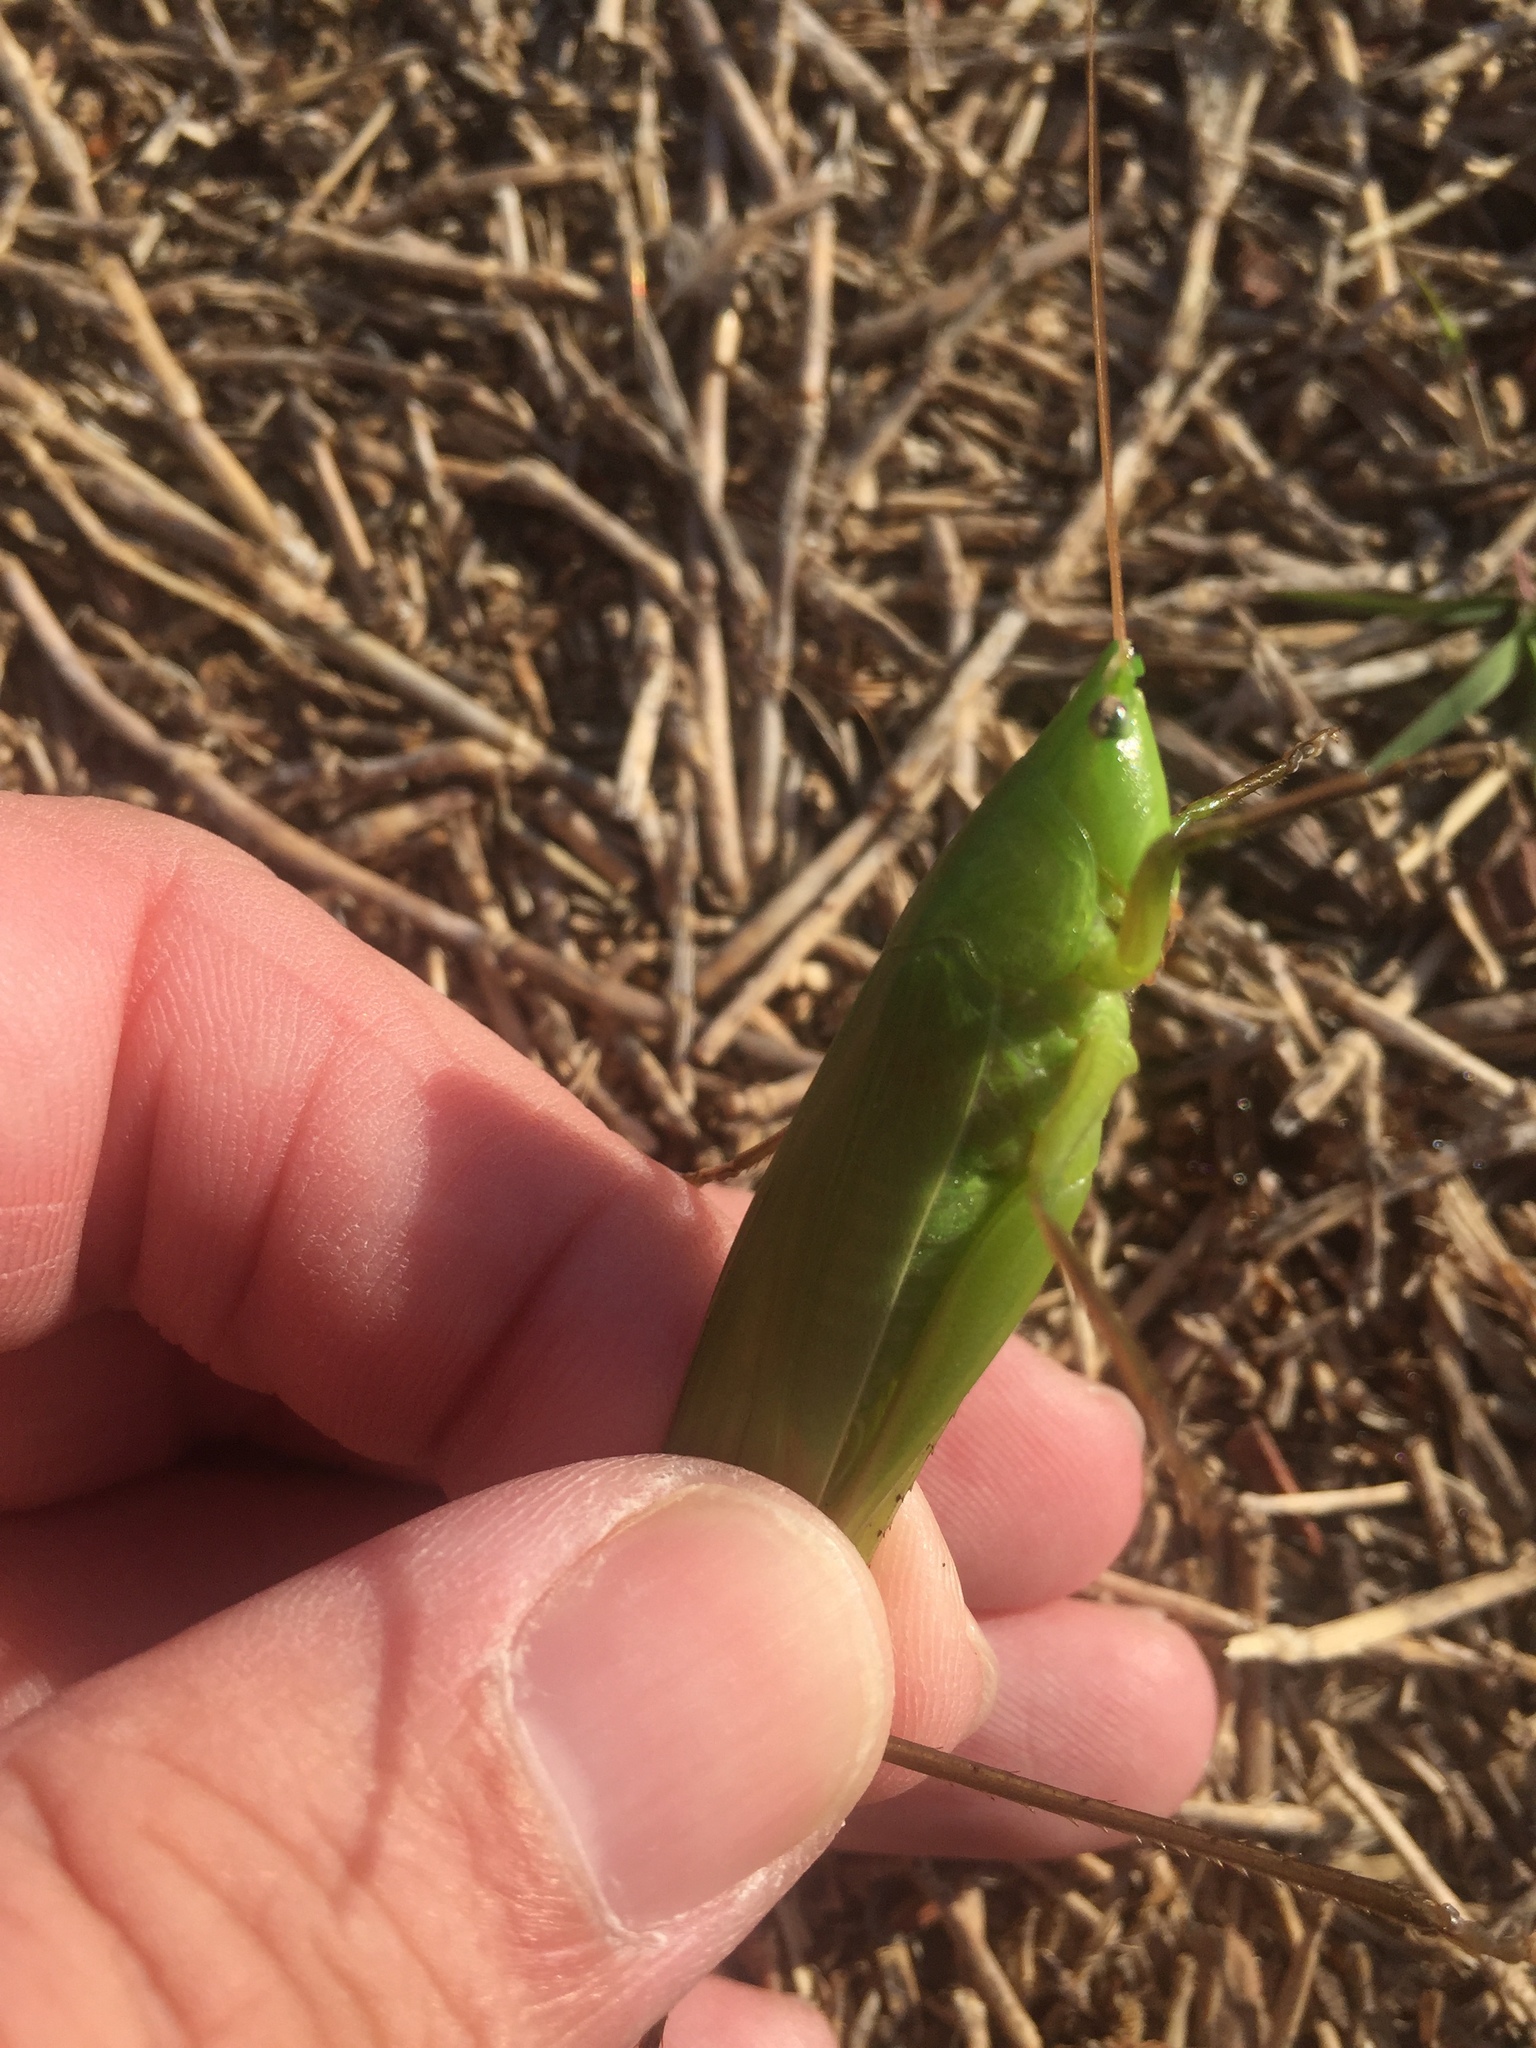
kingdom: Animalia
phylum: Arthropoda
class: Insecta
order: Orthoptera
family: Tettigoniidae
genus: Neoconocephalus
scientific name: Neoconocephalus triops
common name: Broad-tipped conehead
